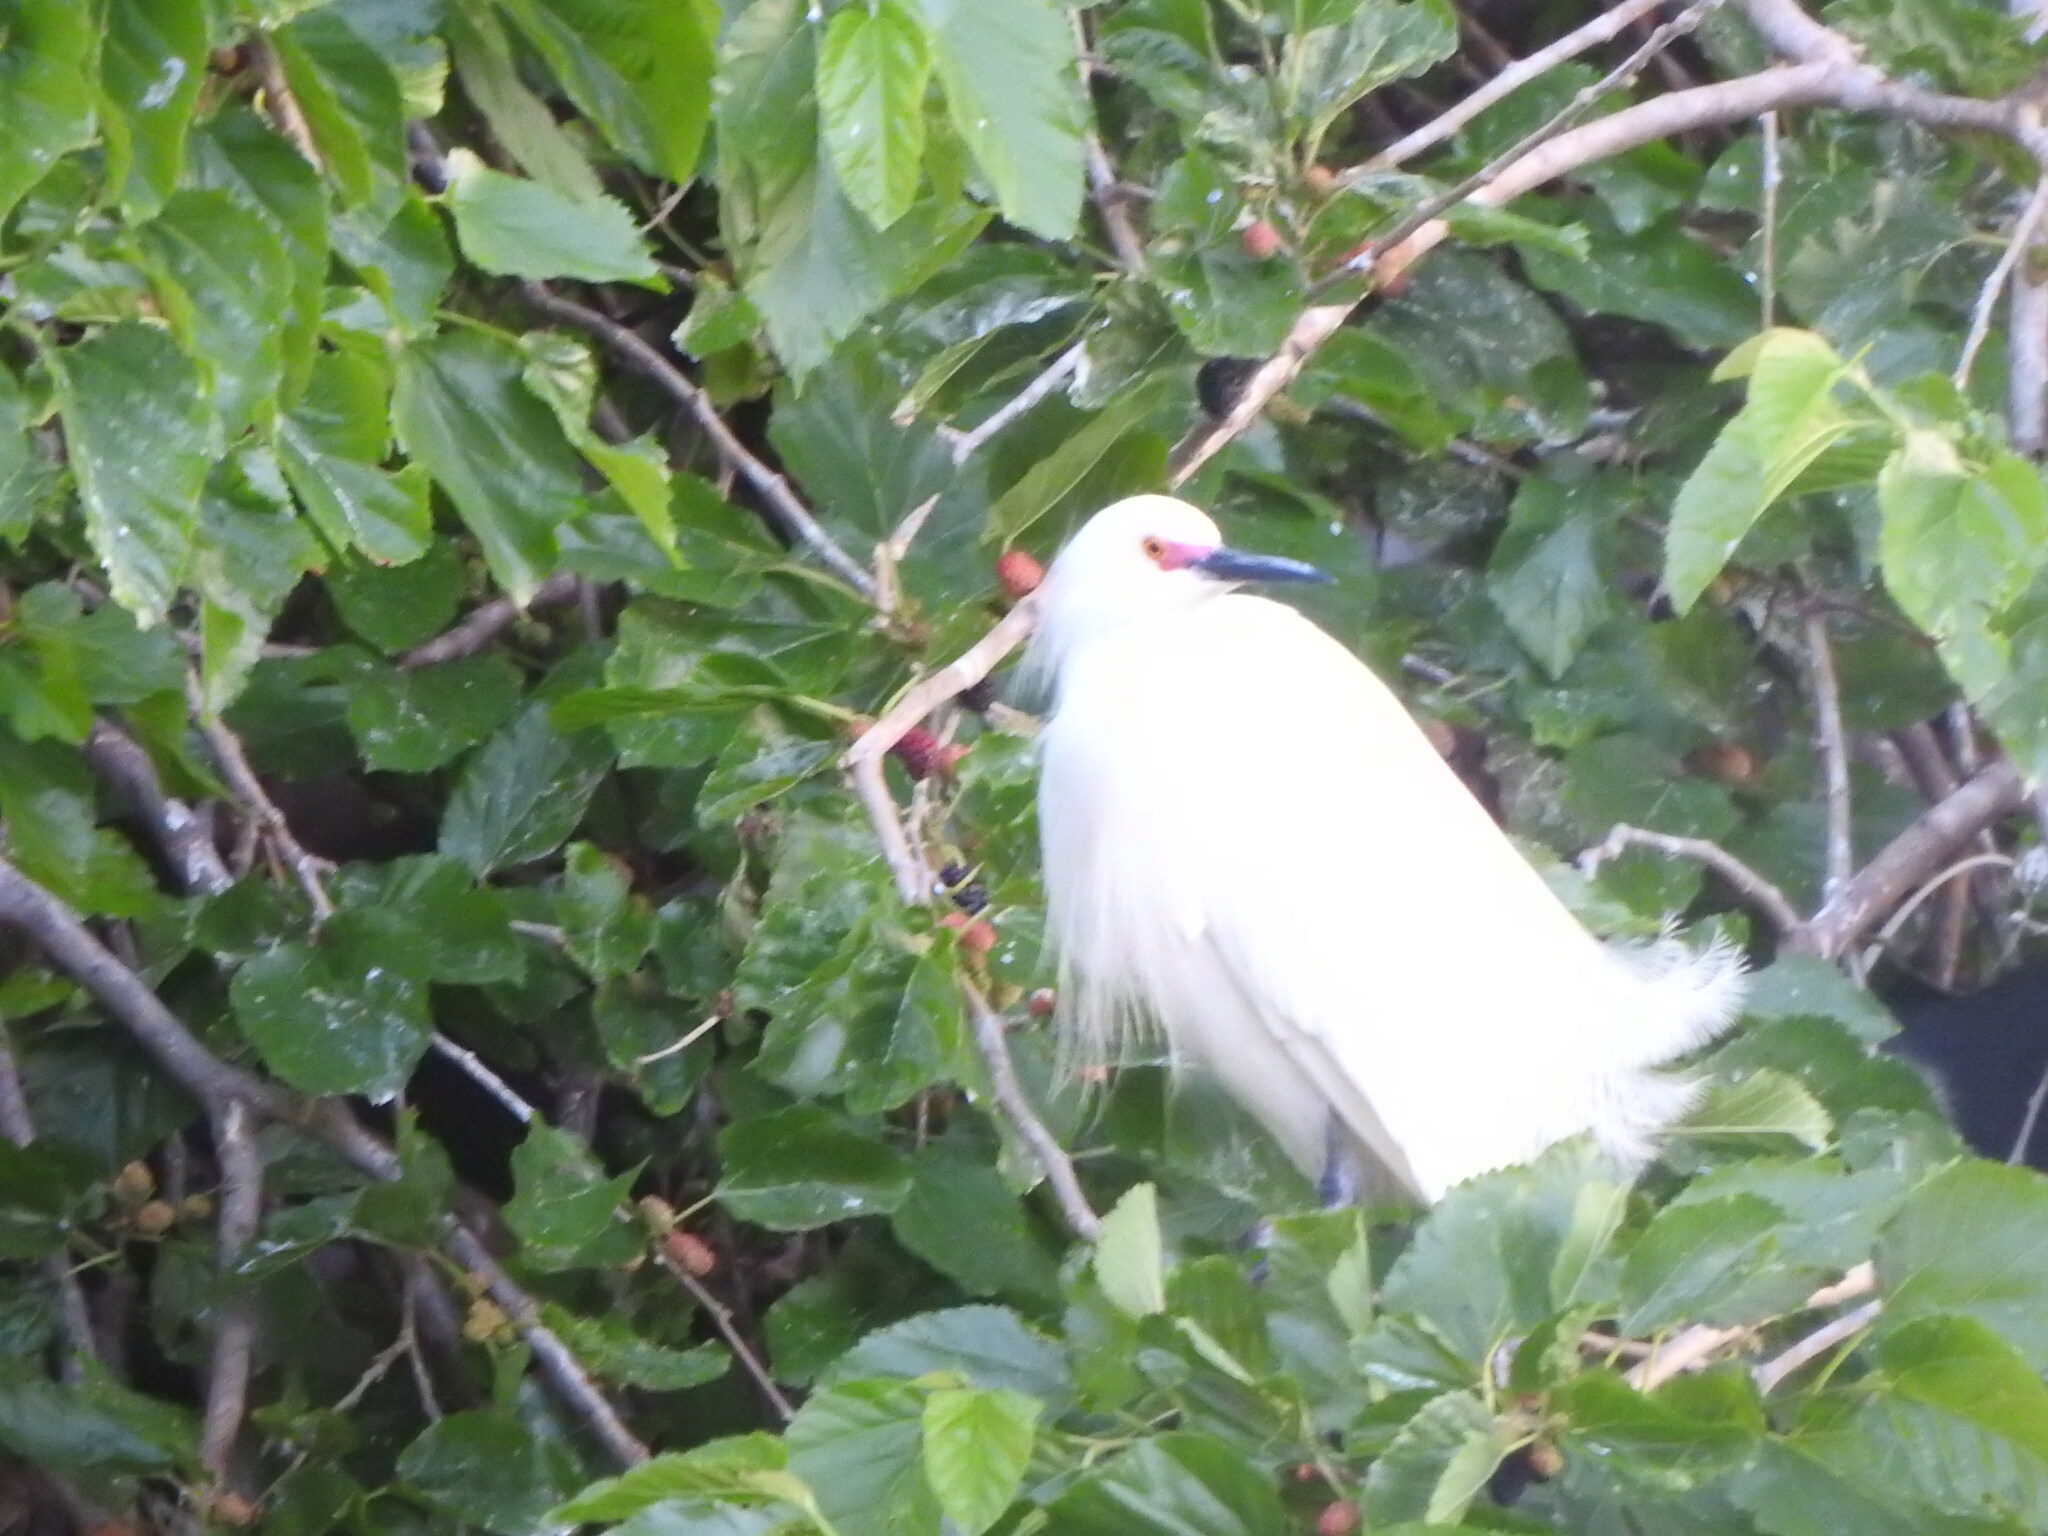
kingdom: Animalia
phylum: Chordata
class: Aves
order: Pelecaniformes
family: Ardeidae
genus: Egretta
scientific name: Egretta thula
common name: Snowy egret
